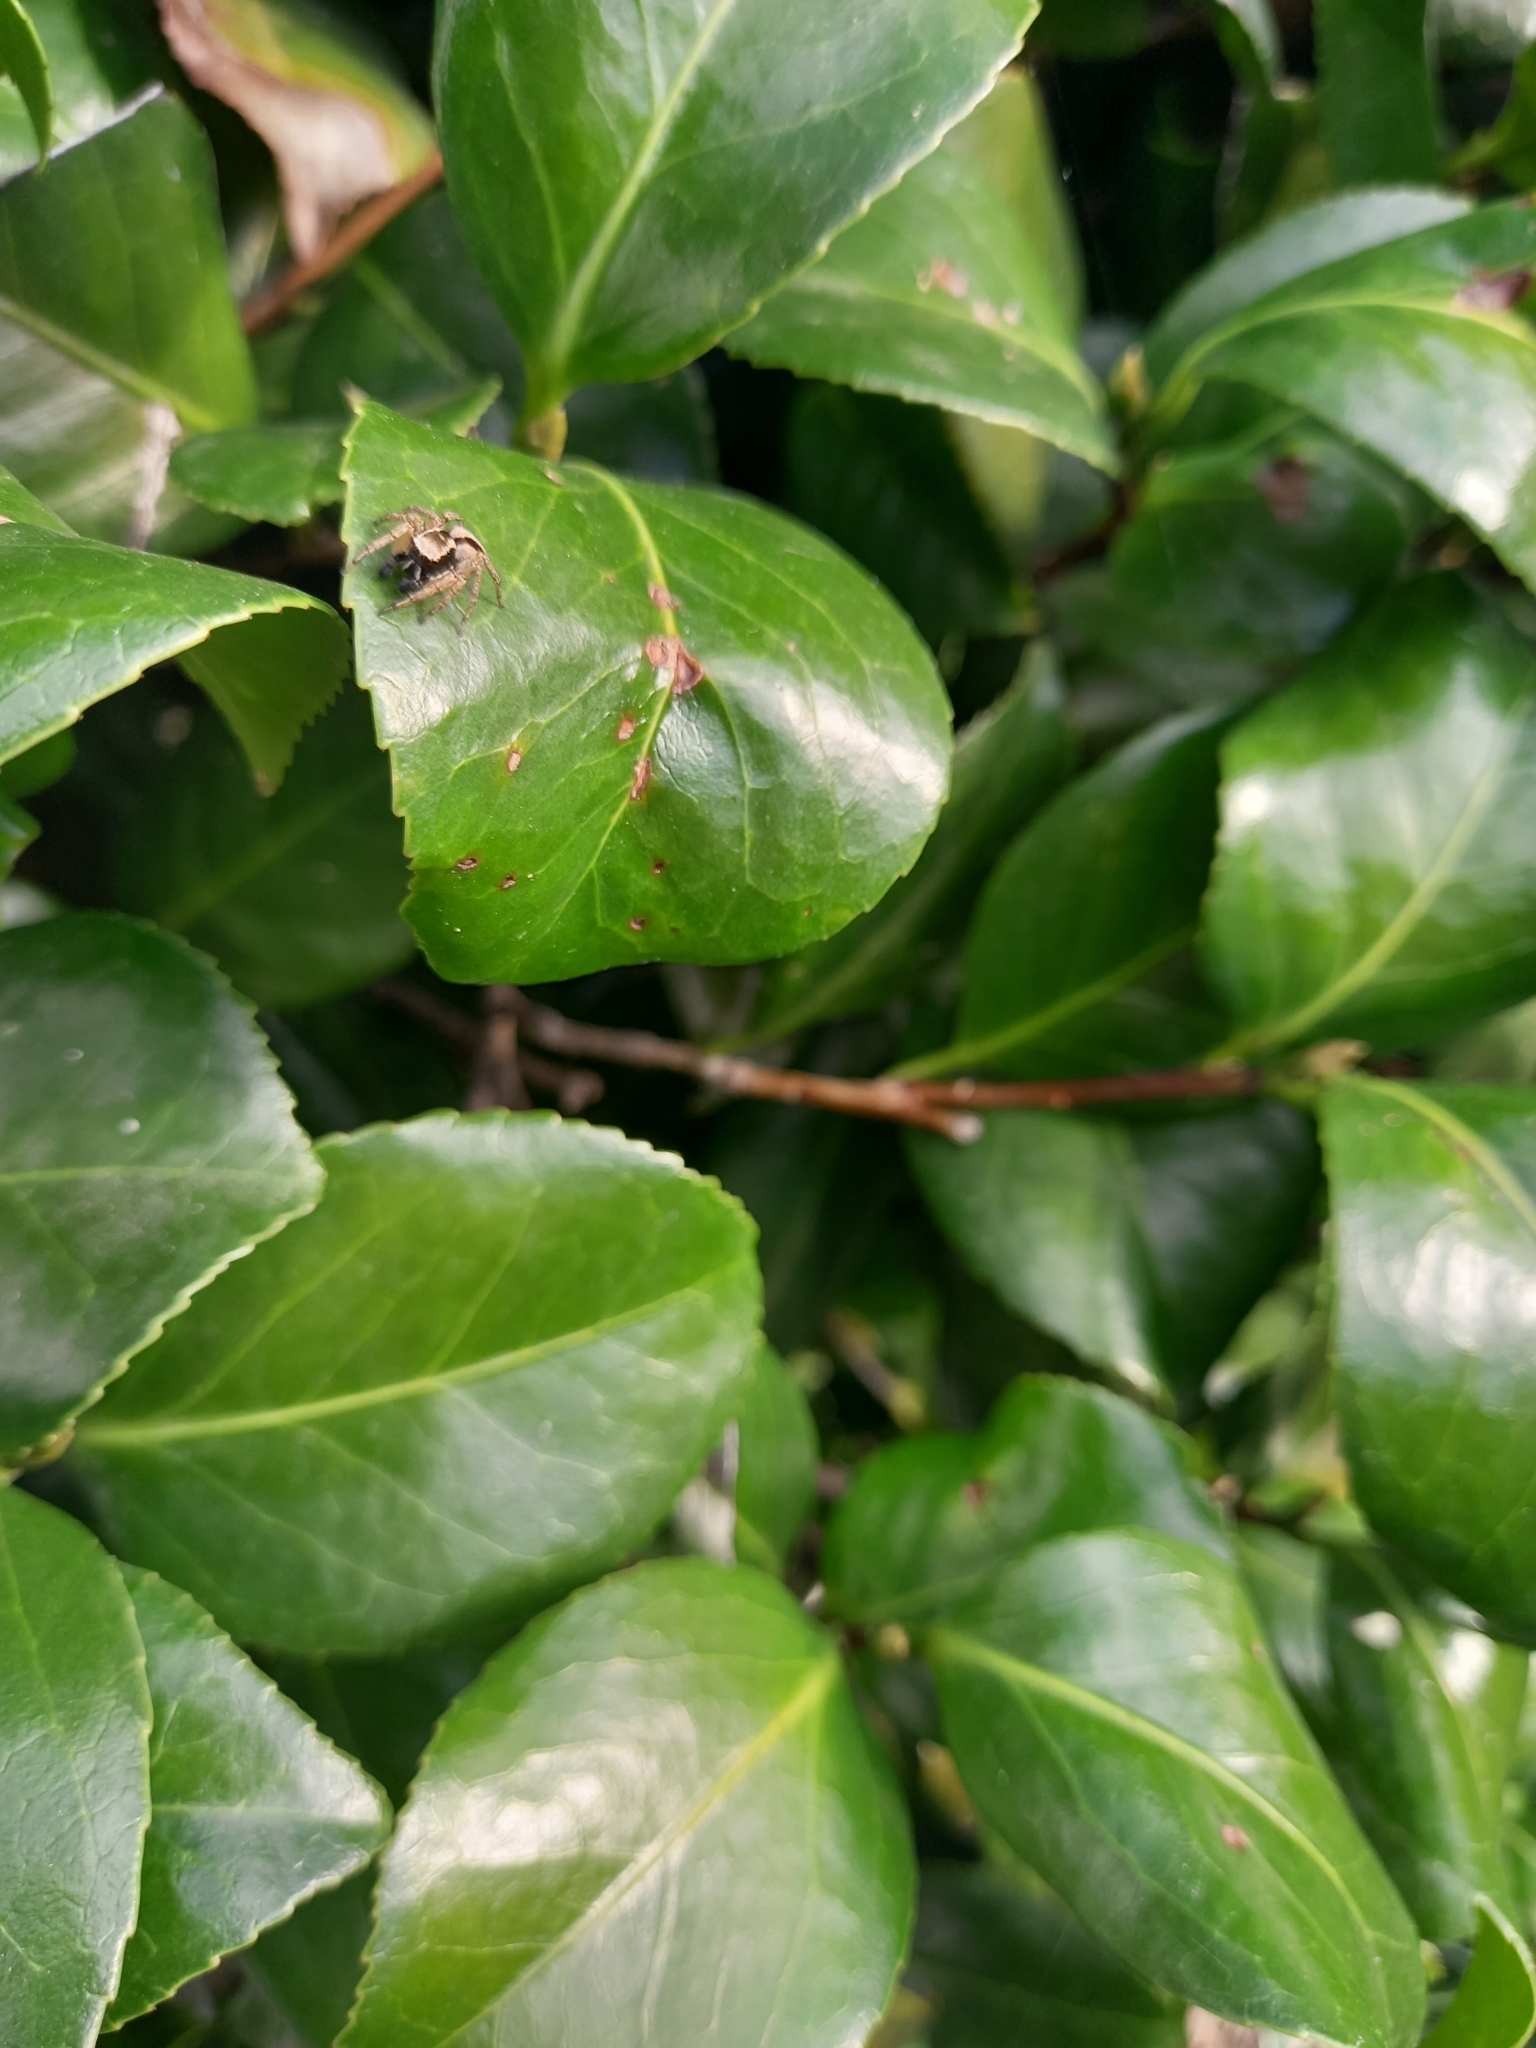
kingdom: Animalia
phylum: Arthropoda
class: Arachnida
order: Araneae
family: Salticidae
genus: Aphirape
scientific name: Aphirape
